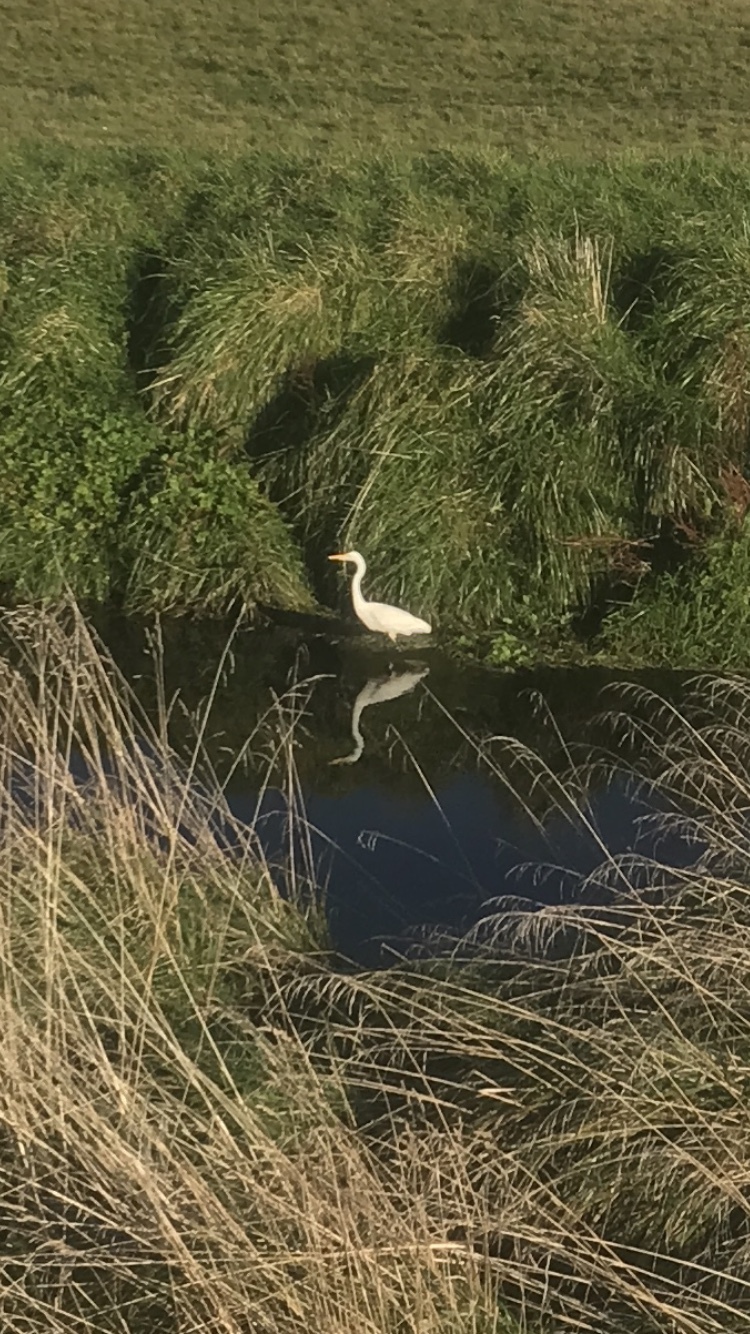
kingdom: Animalia
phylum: Chordata
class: Aves
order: Pelecaniformes
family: Ardeidae
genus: Ardea
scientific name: Ardea modesta
